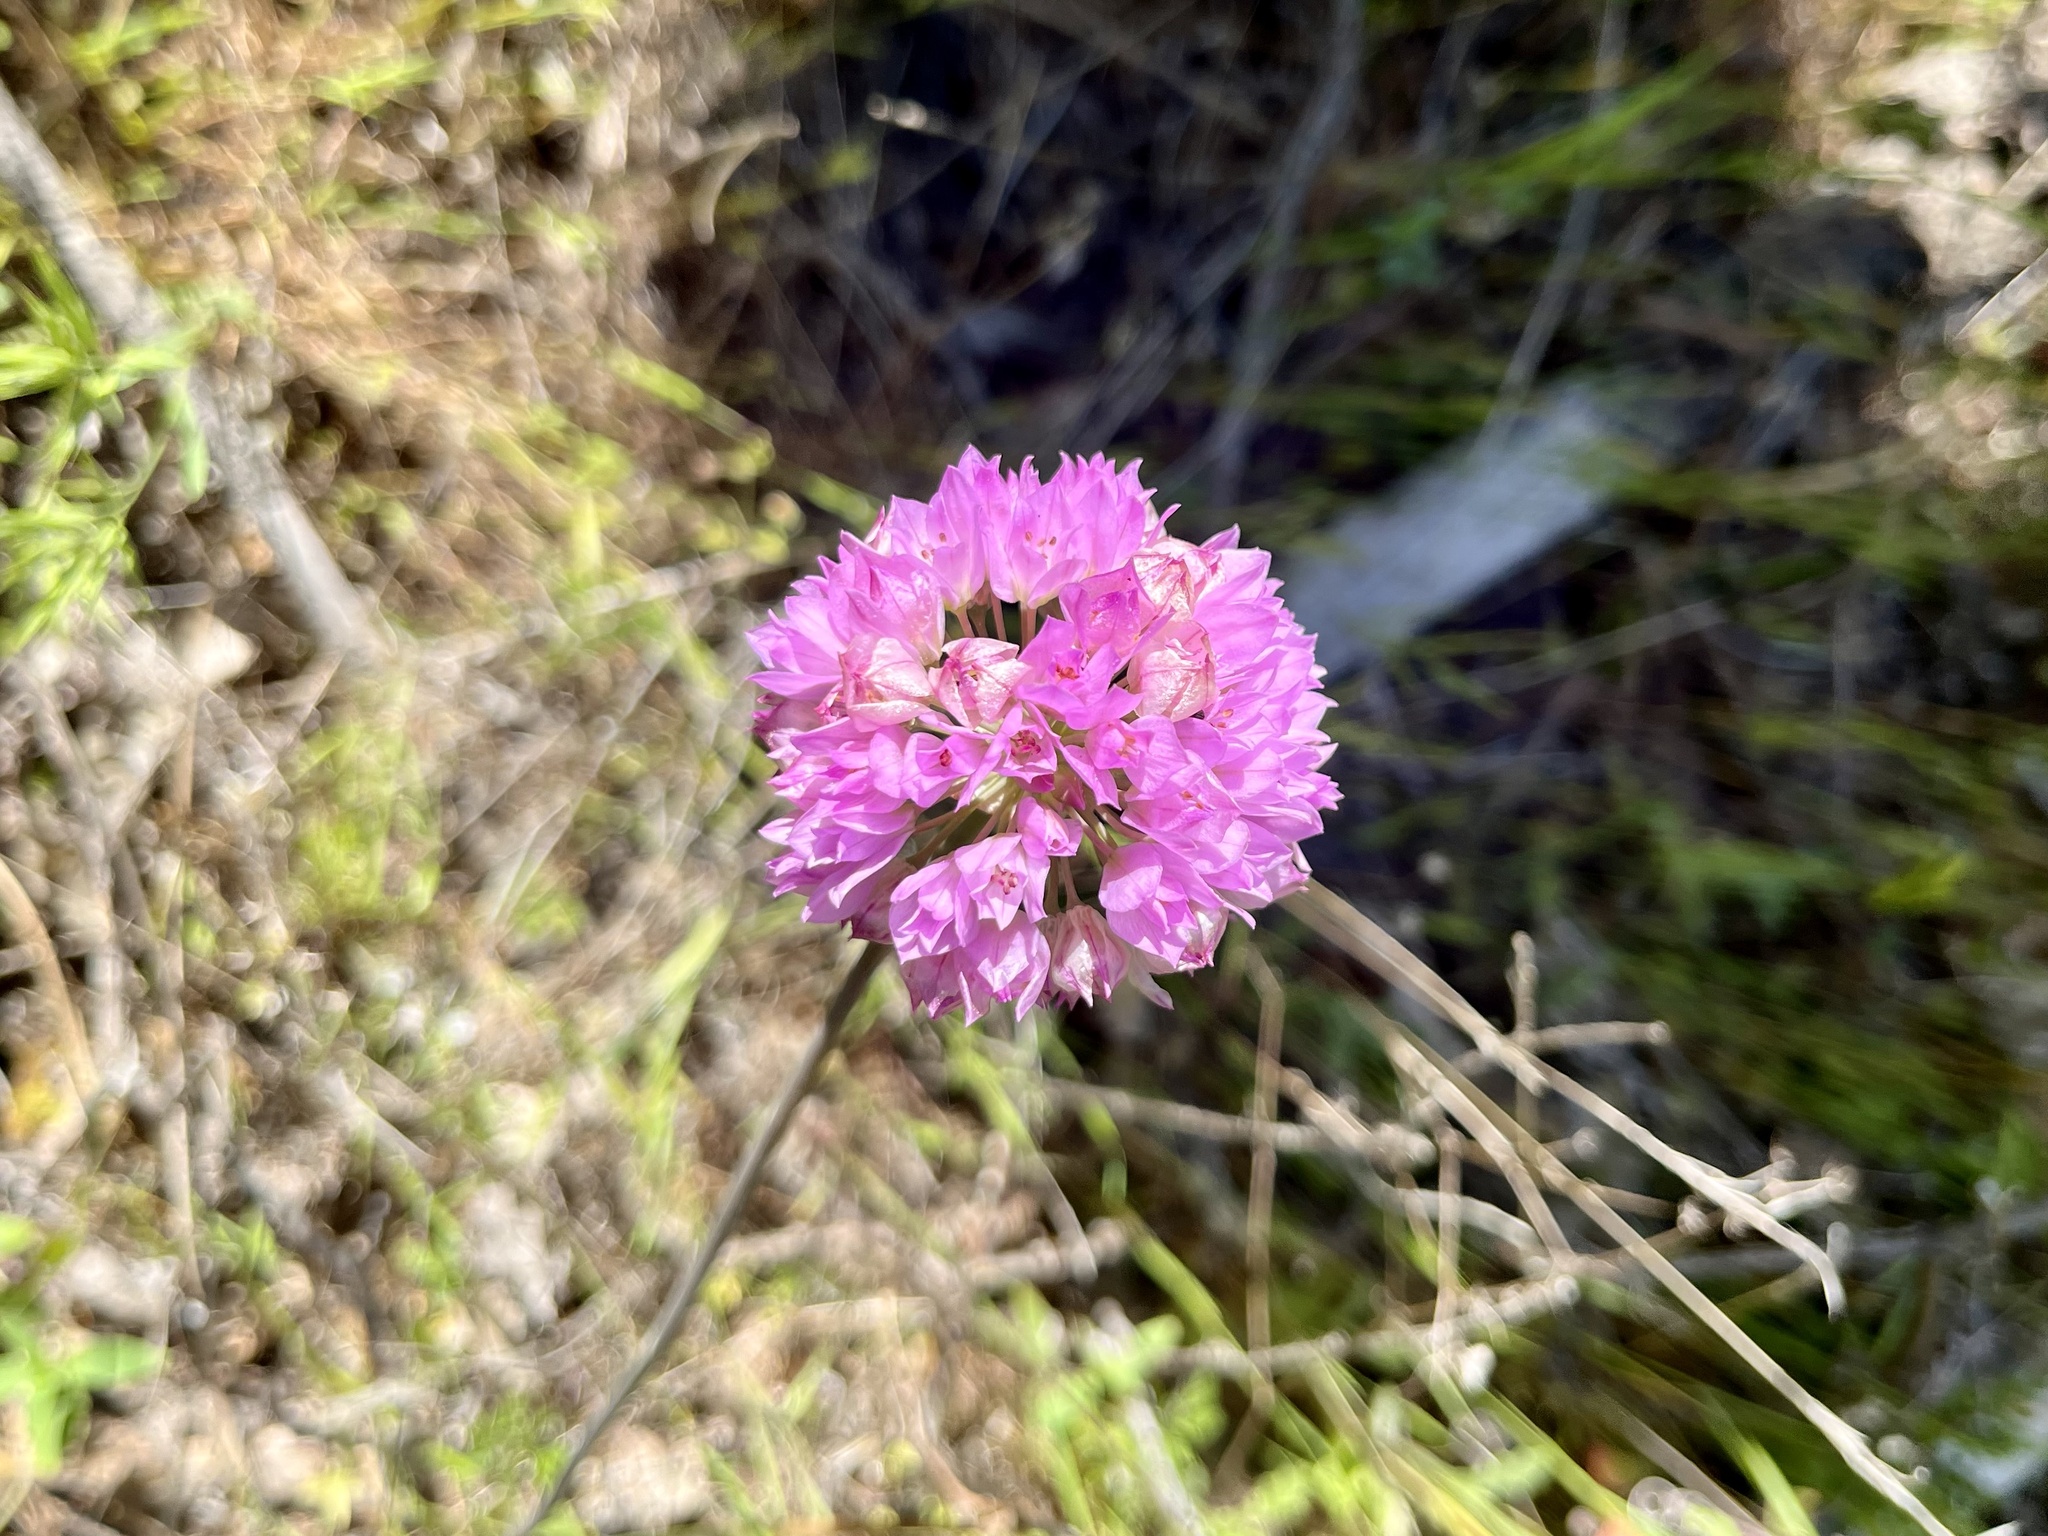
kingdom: Plantae
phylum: Tracheophyta
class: Liliopsida
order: Asparagales
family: Amaryllidaceae
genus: Allium
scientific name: Allium serra
